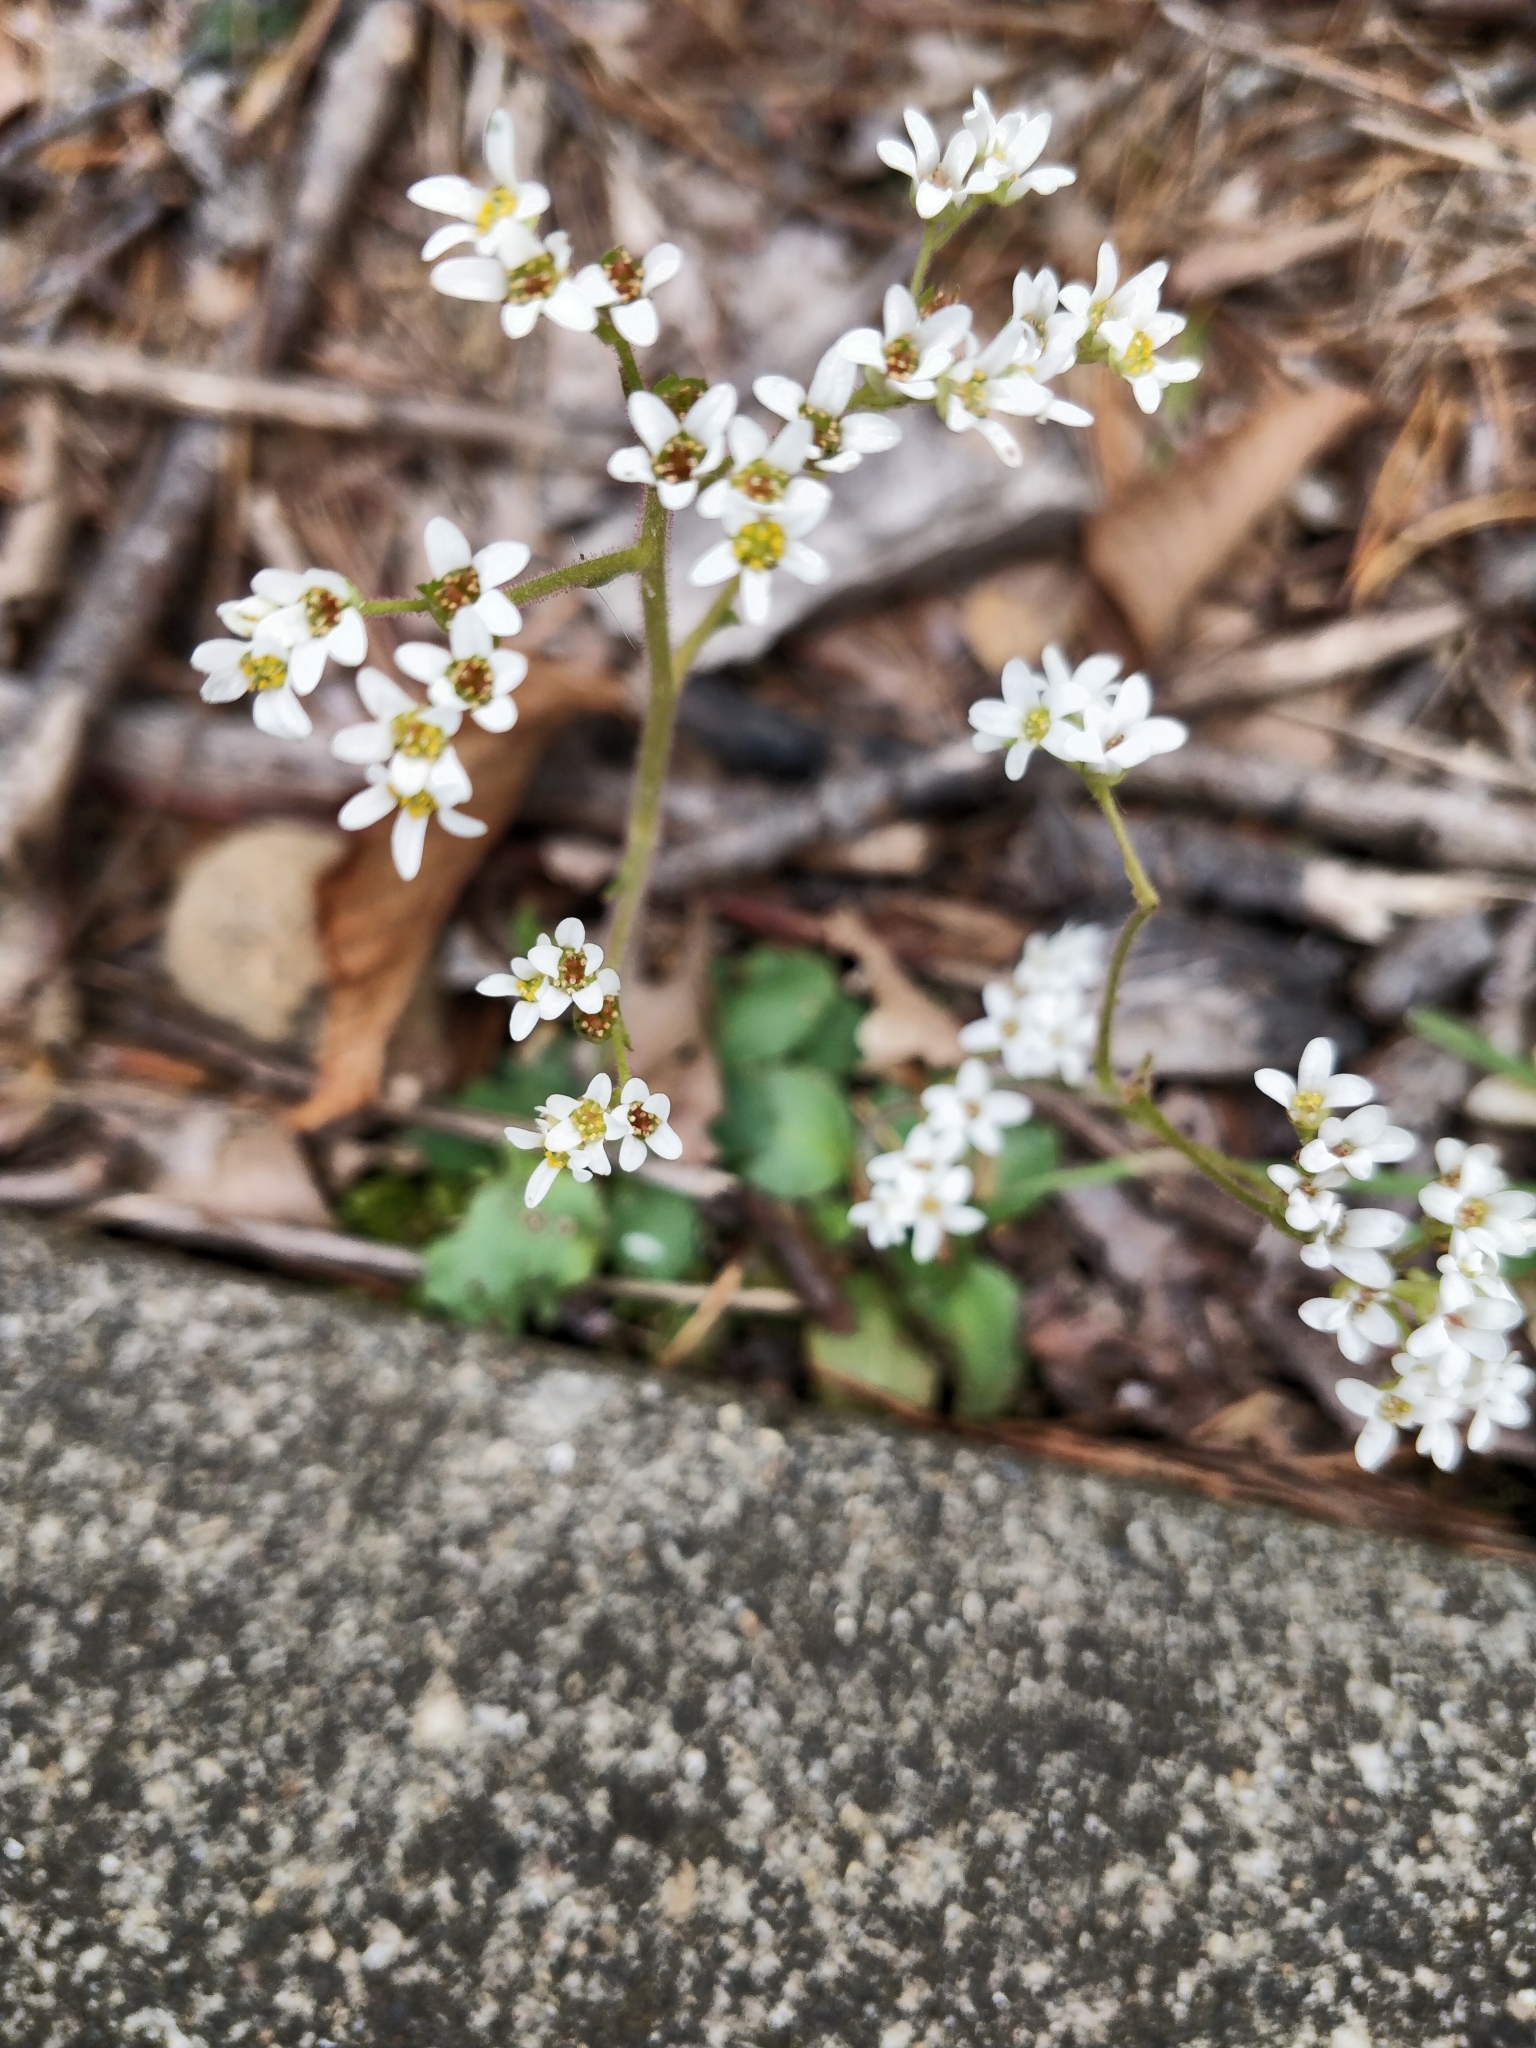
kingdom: Plantae
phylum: Tracheophyta
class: Magnoliopsida
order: Saxifragales
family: Saxifragaceae
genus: Micranthes
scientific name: Micranthes virginiensis
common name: Early saxifrage
